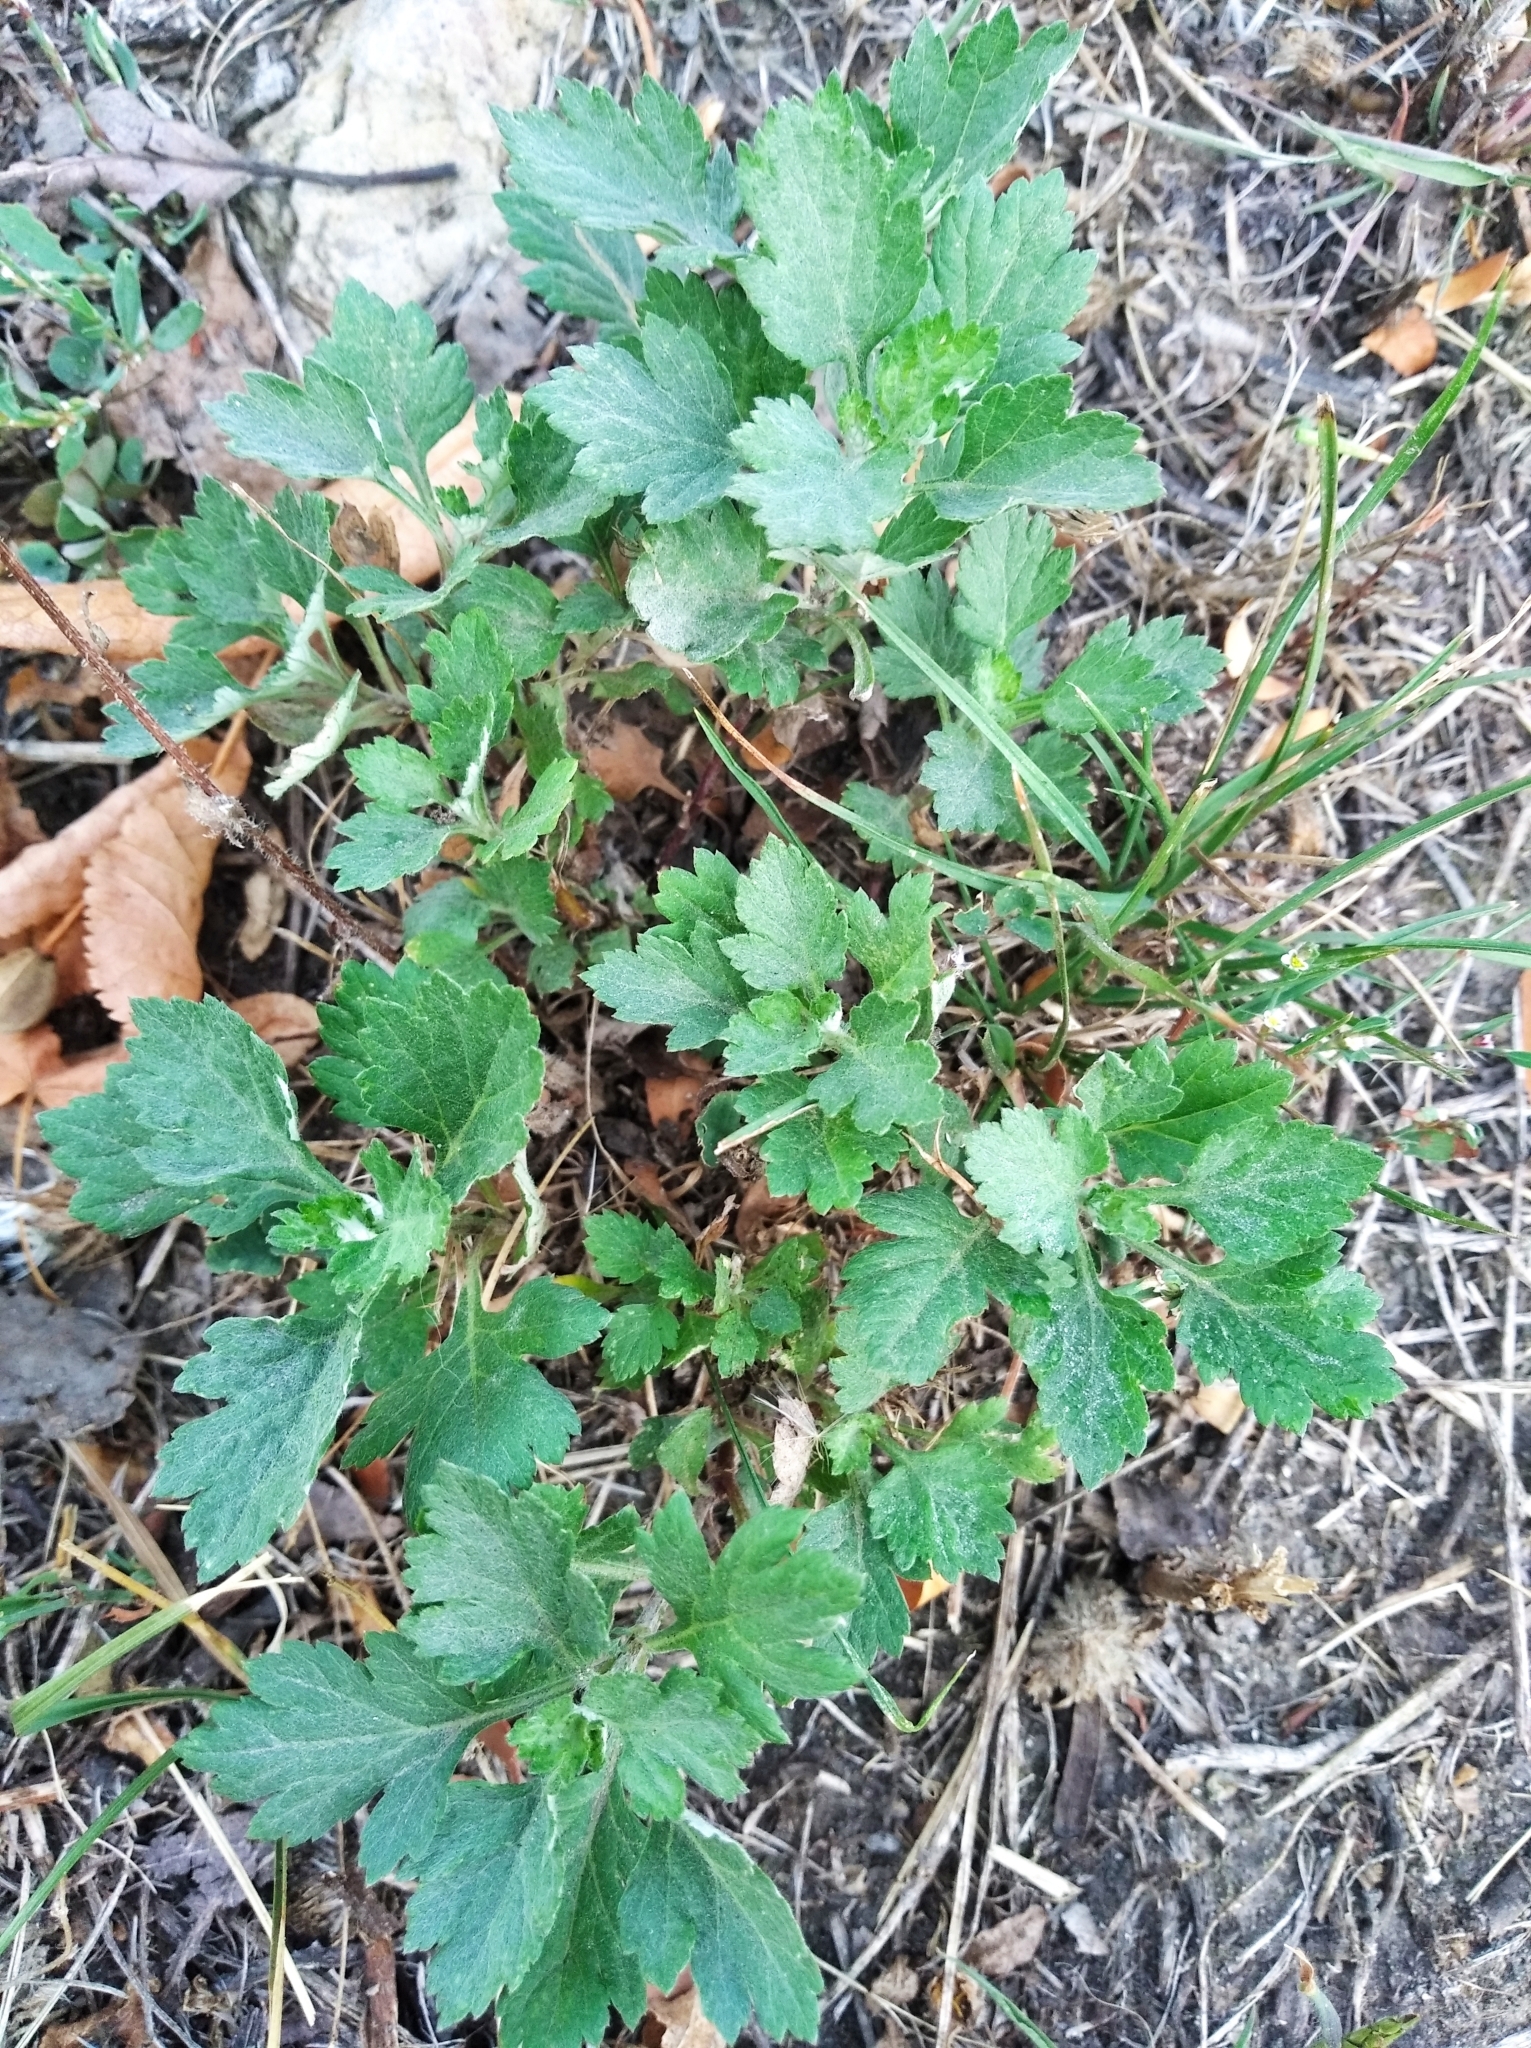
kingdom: Plantae
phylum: Tracheophyta
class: Magnoliopsida
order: Asterales
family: Asteraceae
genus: Artemisia
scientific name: Artemisia vulgaris
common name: Mugwort
